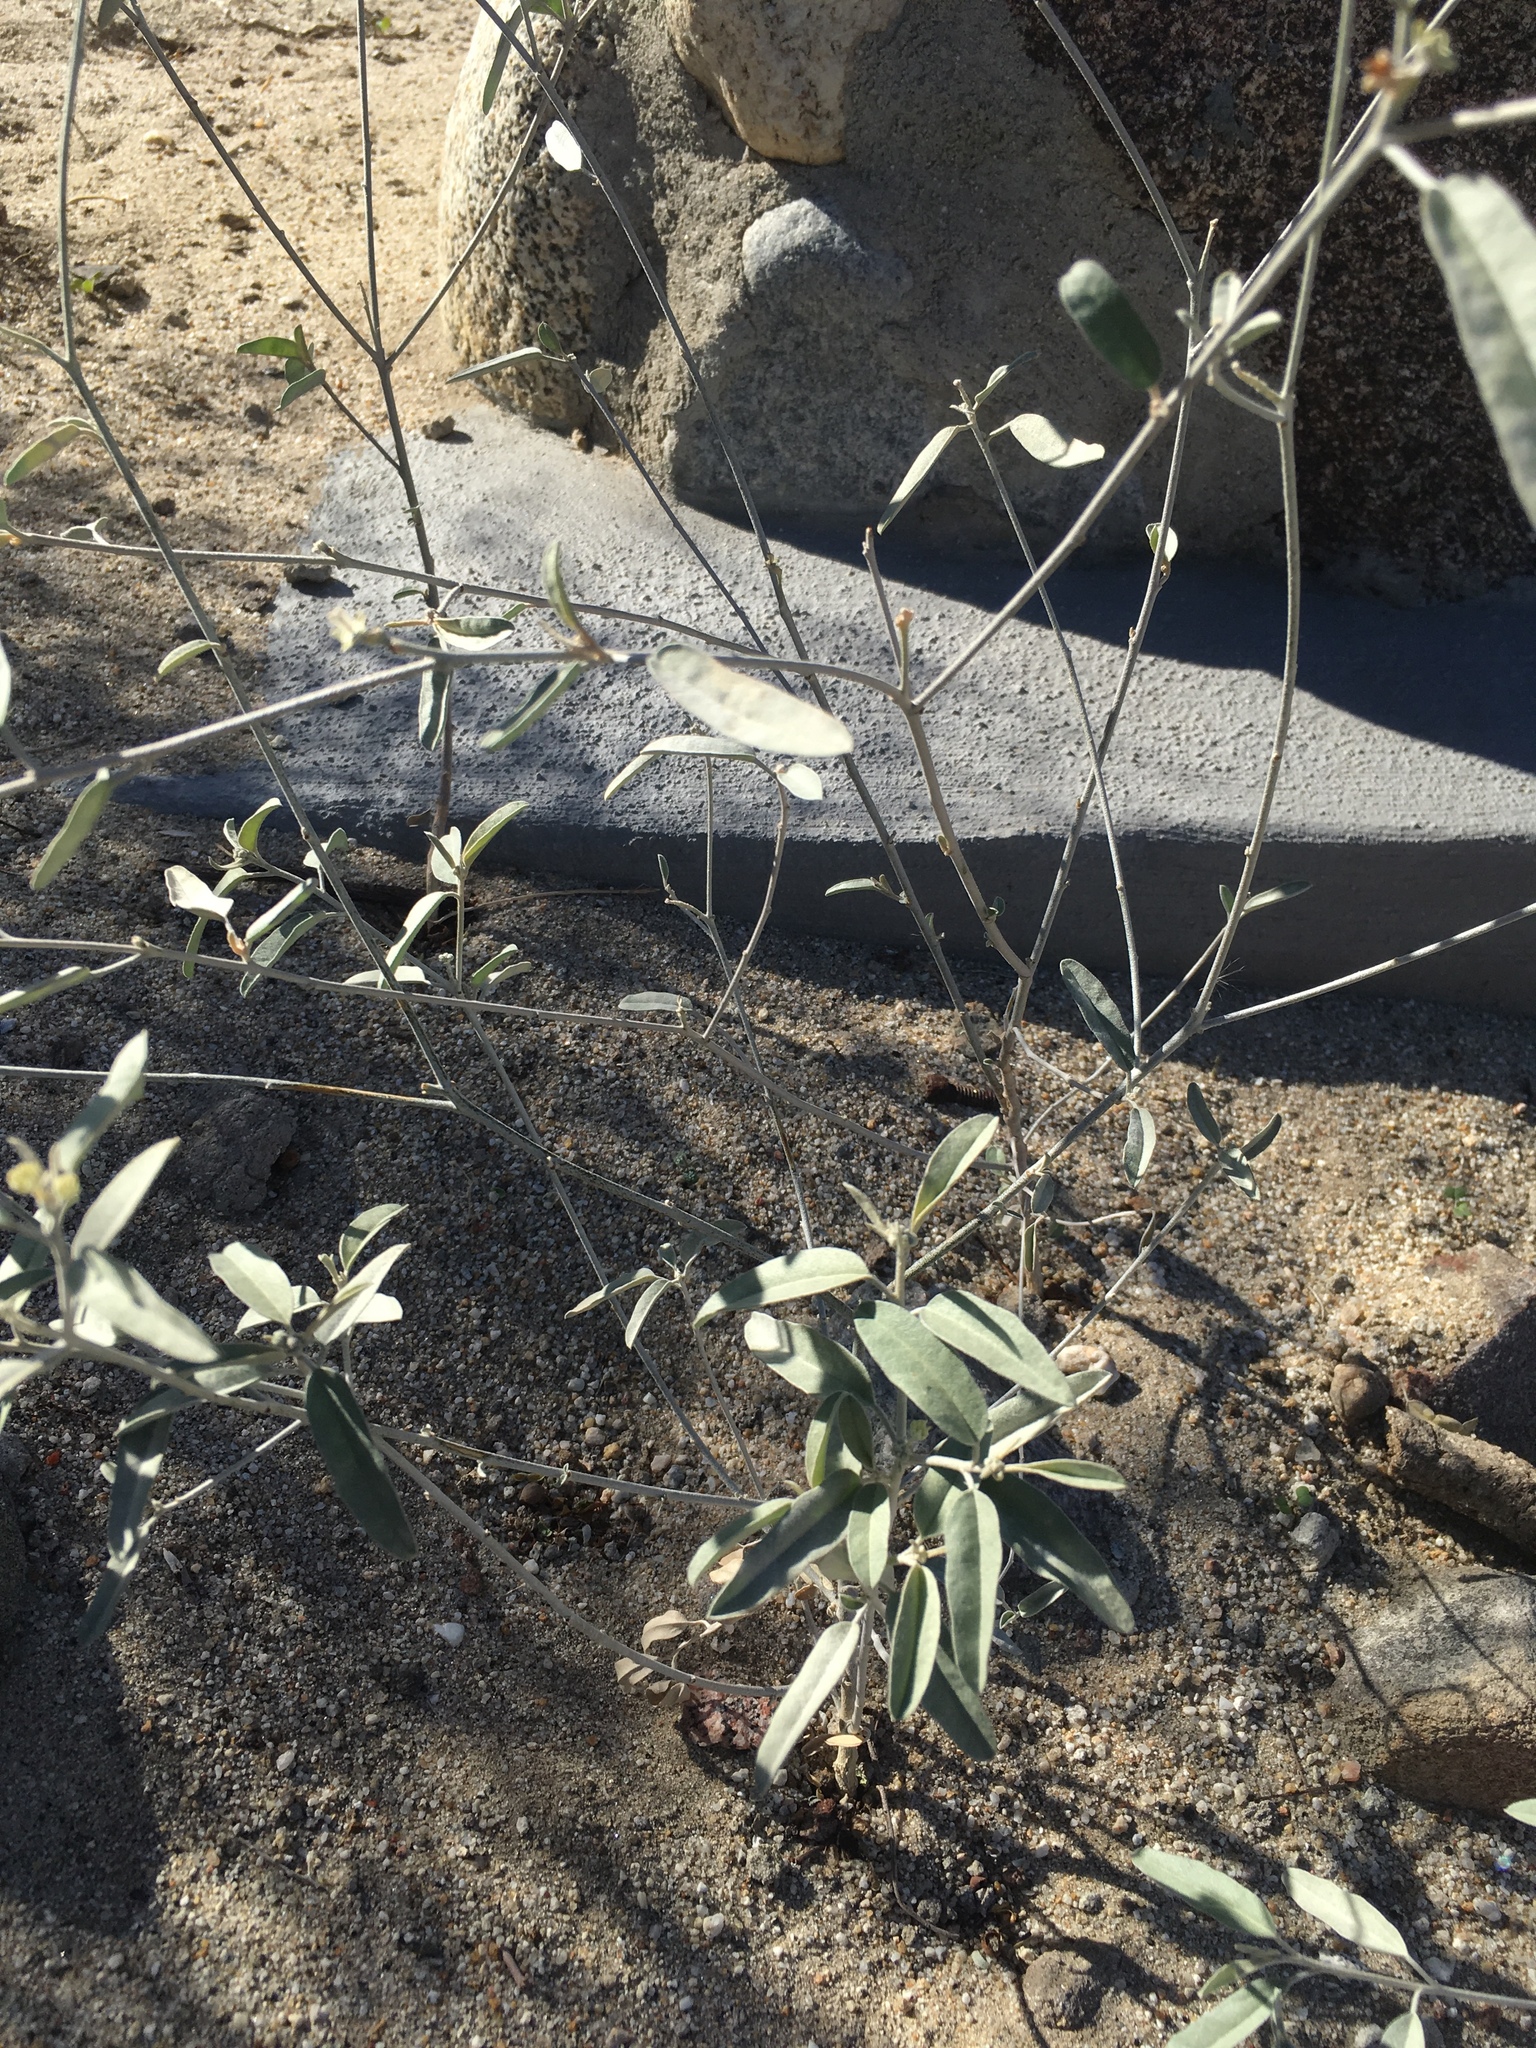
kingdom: Plantae
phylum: Tracheophyta
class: Magnoliopsida
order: Malpighiales
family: Euphorbiaceae
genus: Croton
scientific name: Croton californicus
